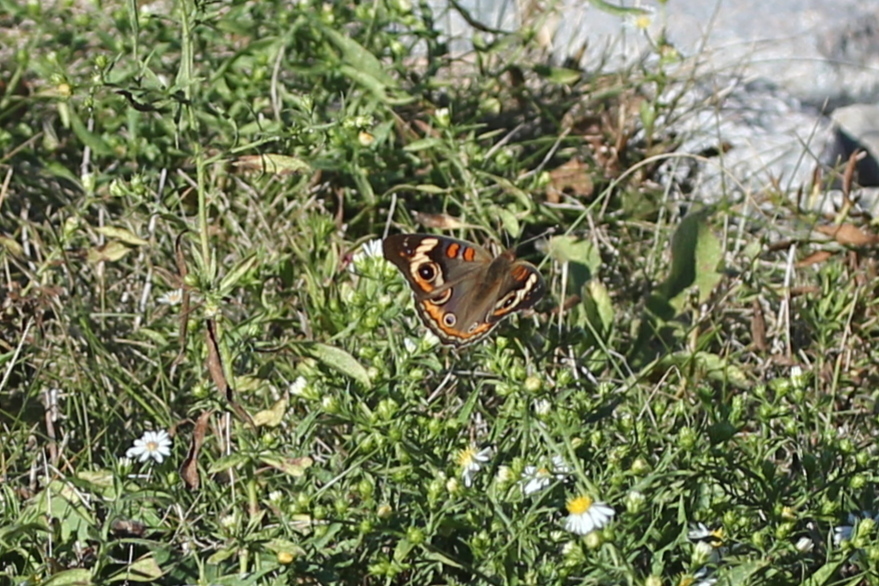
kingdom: Animalia
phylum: Arthropoda
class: Insecta
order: Lepidoptera
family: Nymphalidae
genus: Junonia
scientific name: Junonia coenia
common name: Common buckeye
